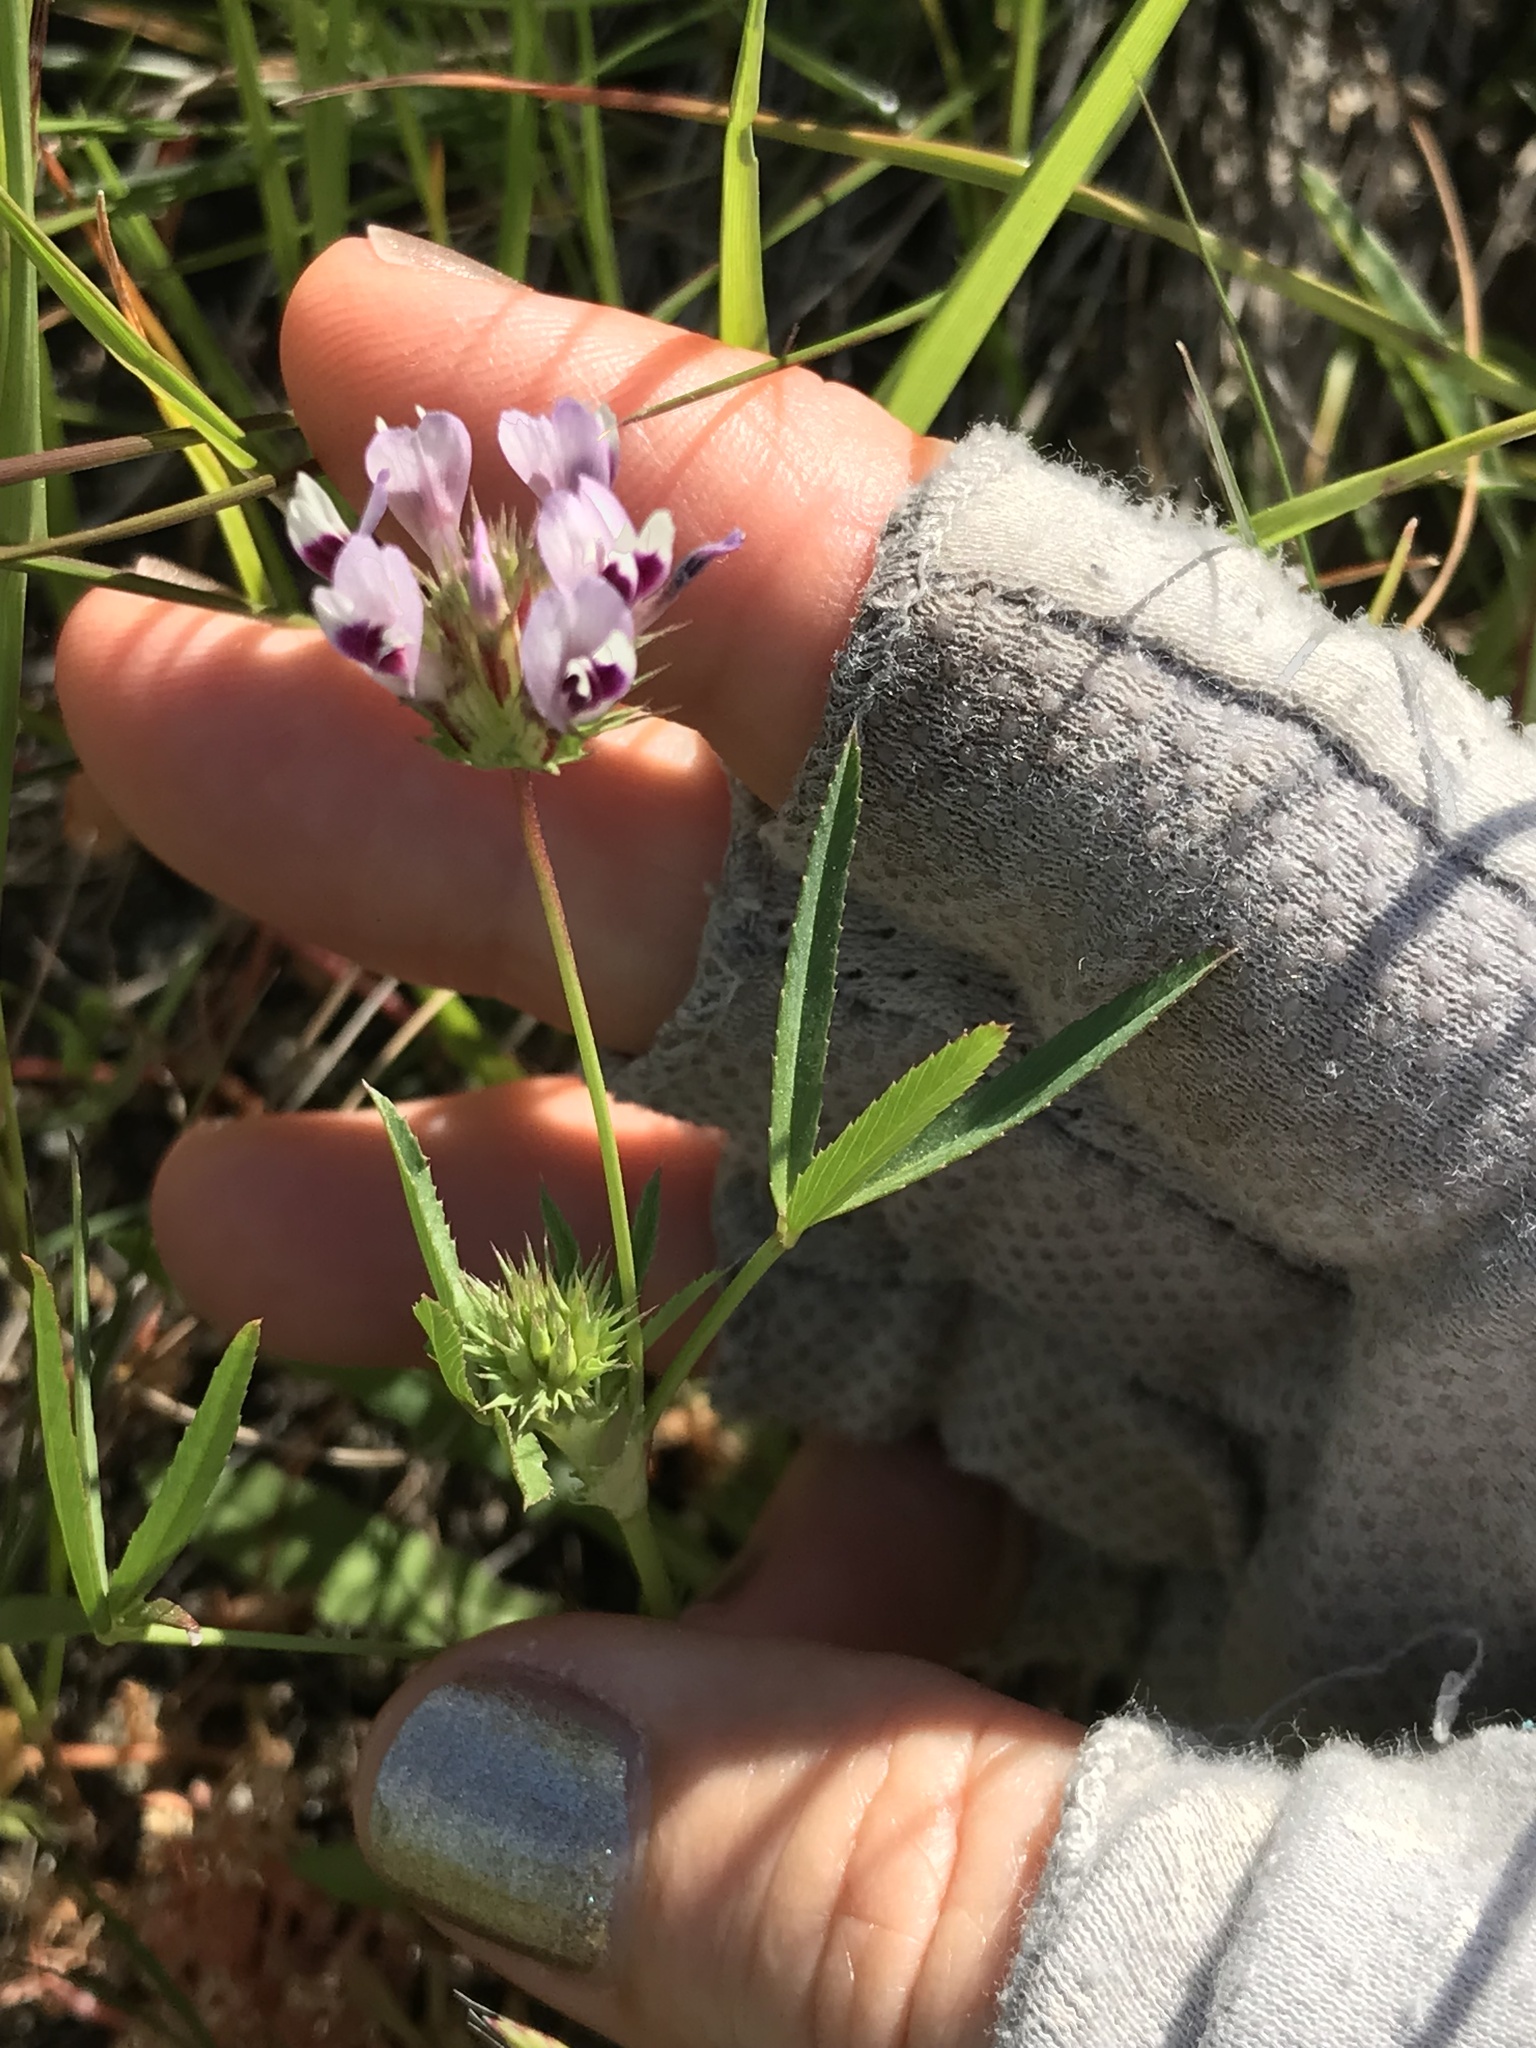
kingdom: Plantae
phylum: Tracheophyta
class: Magnoliopsida
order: Fabales
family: Fabaceae
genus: Trifolium
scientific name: Trifolium willdenovii
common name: Tomcat clover
